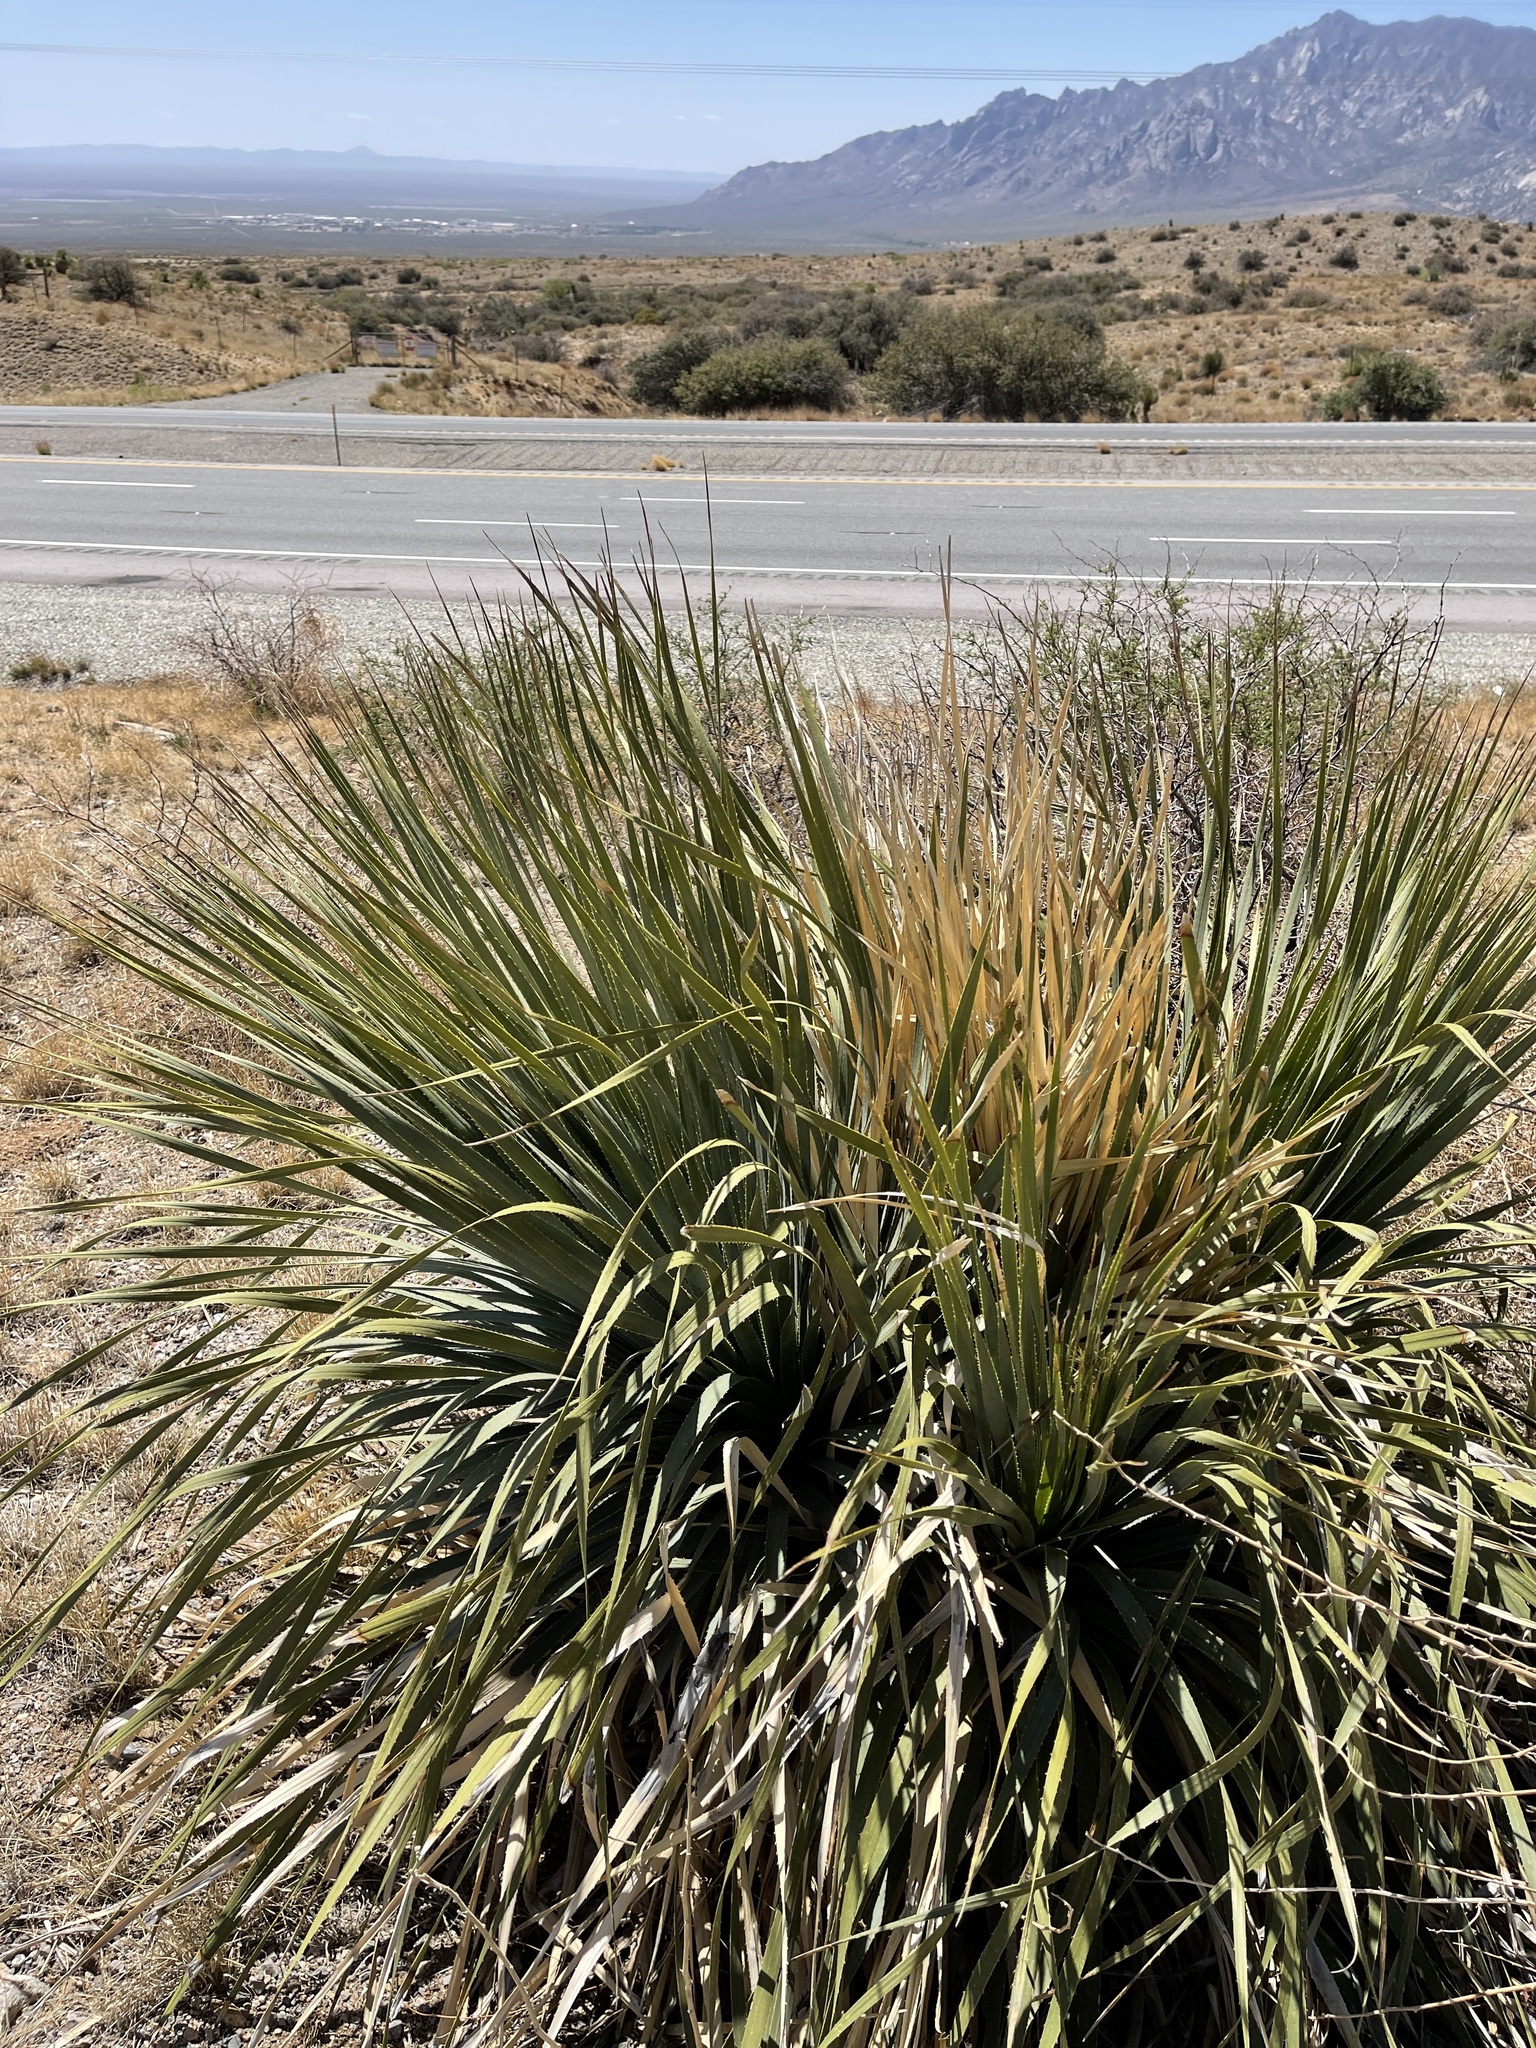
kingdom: Plantae
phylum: Tracheophyta
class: Liliopsida
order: Asparagales
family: Asparagaceae
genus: Dasylirion
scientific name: Dasylirion wheeleri
